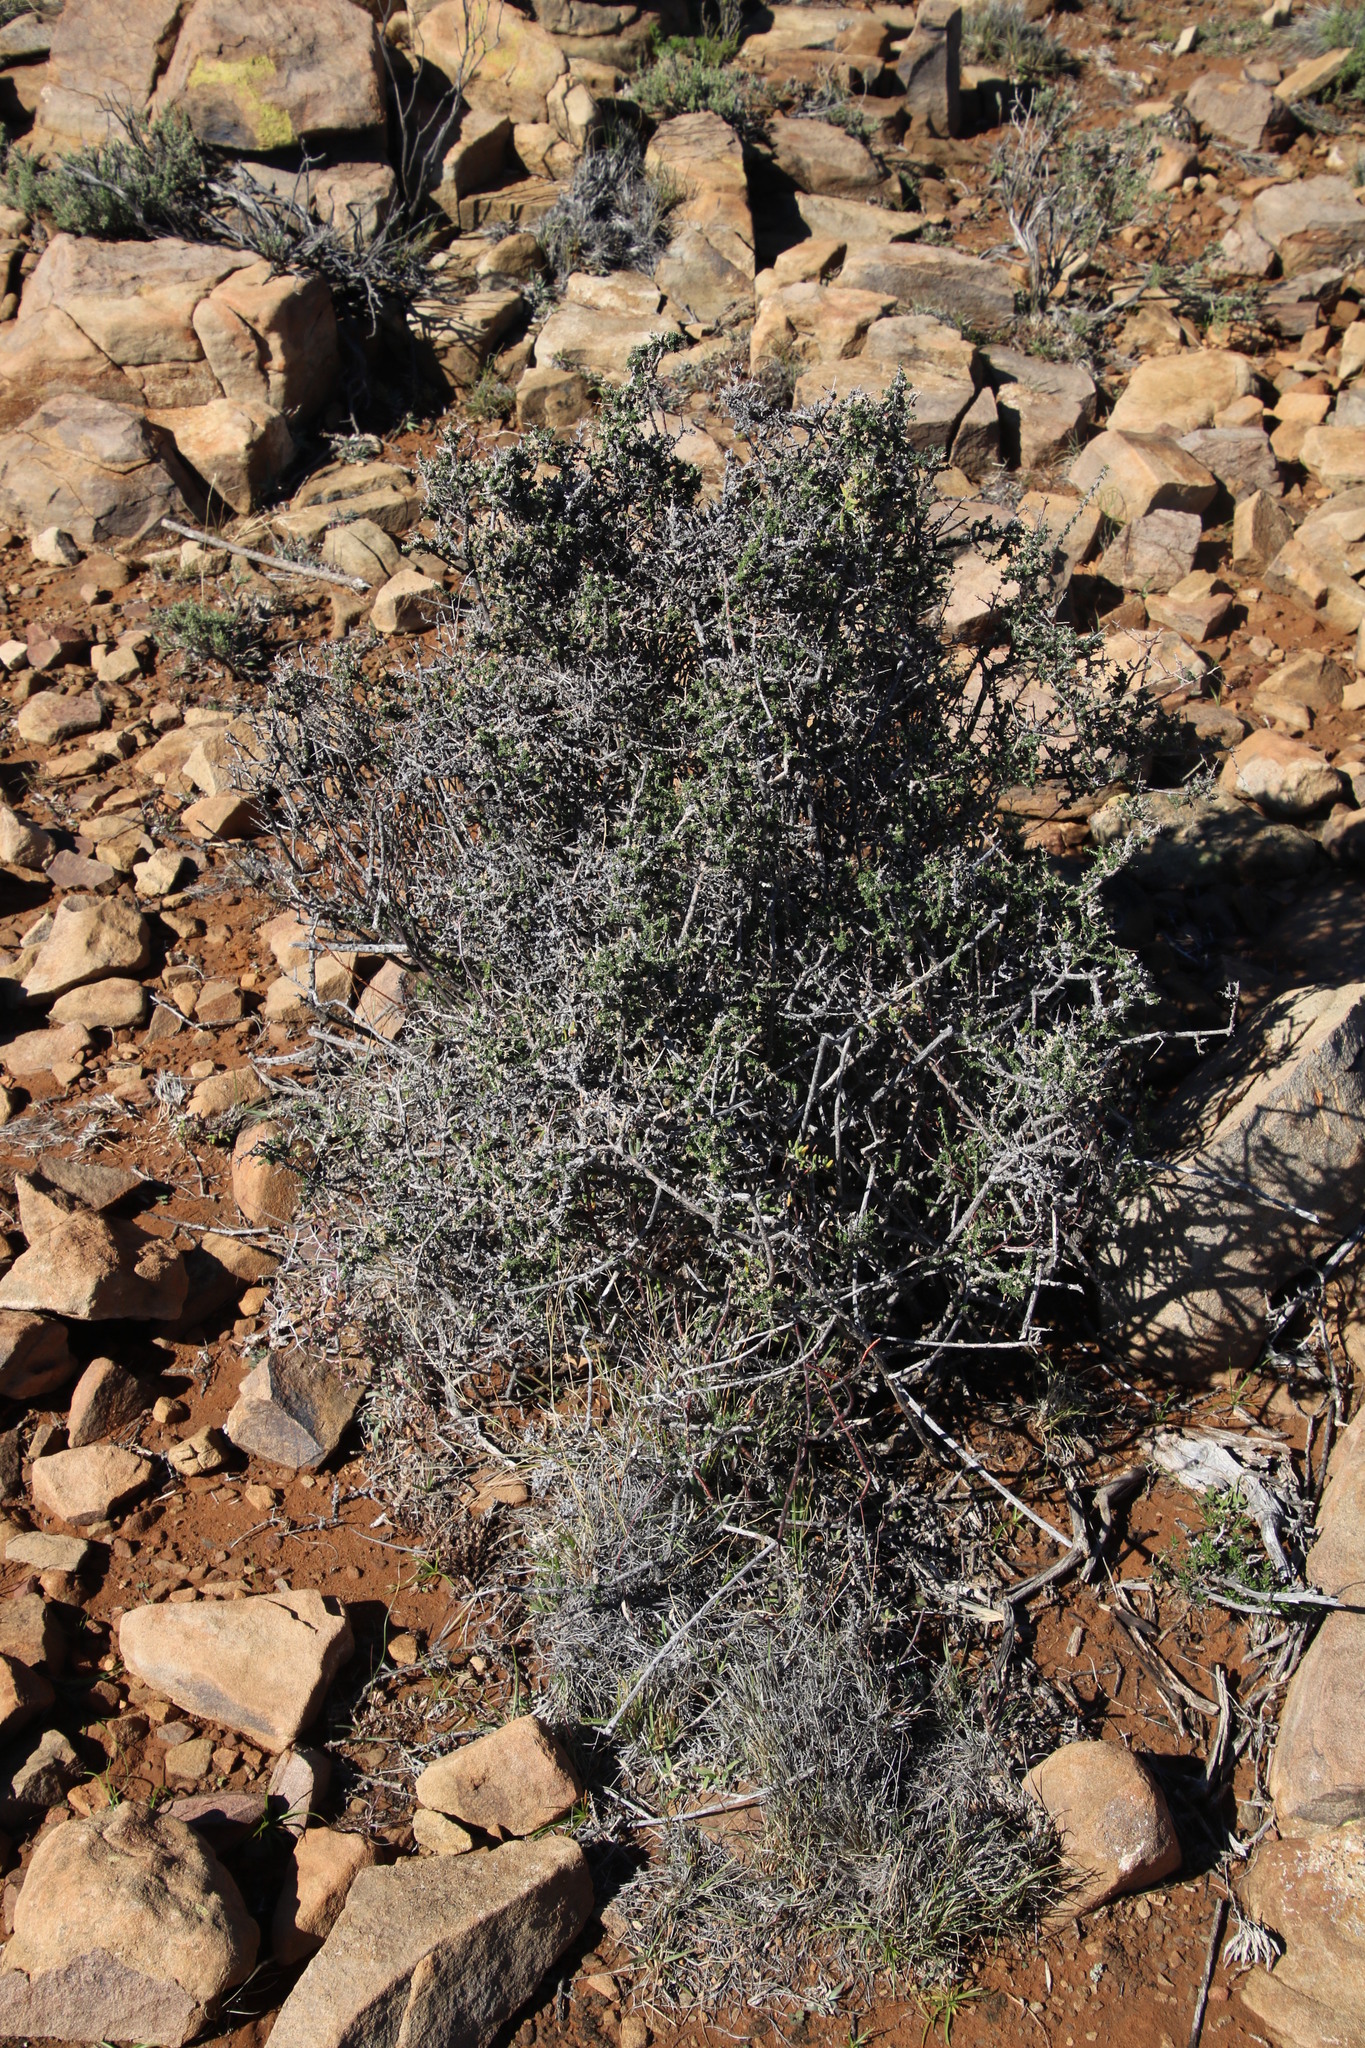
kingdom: Plantae
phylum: Tracheophyta
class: Magnoliopsida
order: Asterales
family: Campanulaceae
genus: Wahlenbergia
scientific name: Wahlenbergia nodosa
